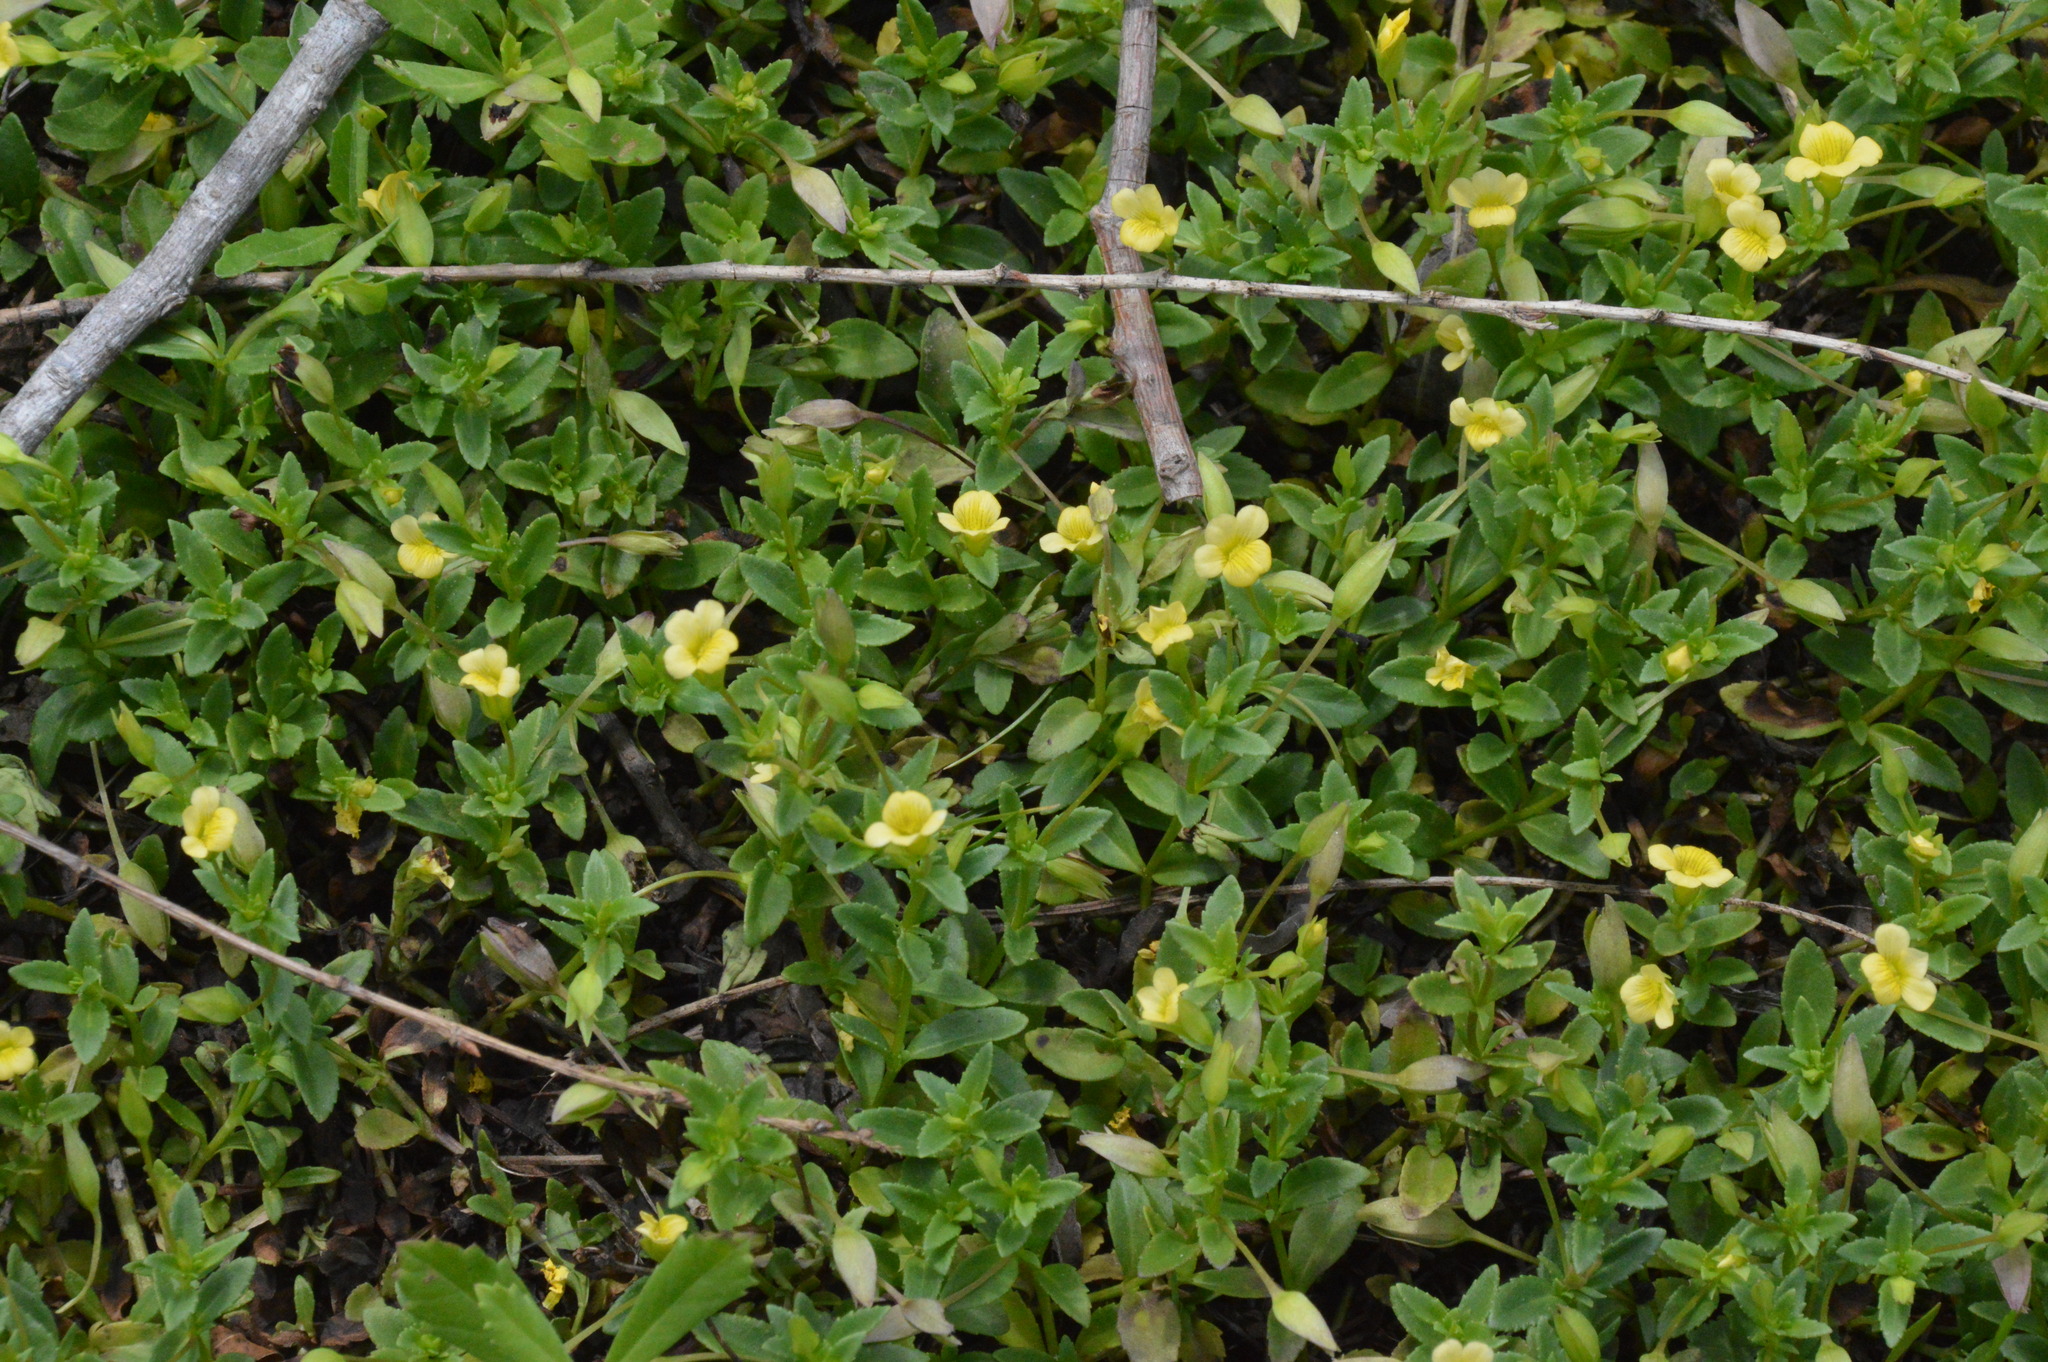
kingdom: Plantae
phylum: Tracheophyta
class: Magnoliopsida
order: Lamiales
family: Plantaginaceae
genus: Mecardonia
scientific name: Mecardonia procumbens
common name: Baby jump-up
